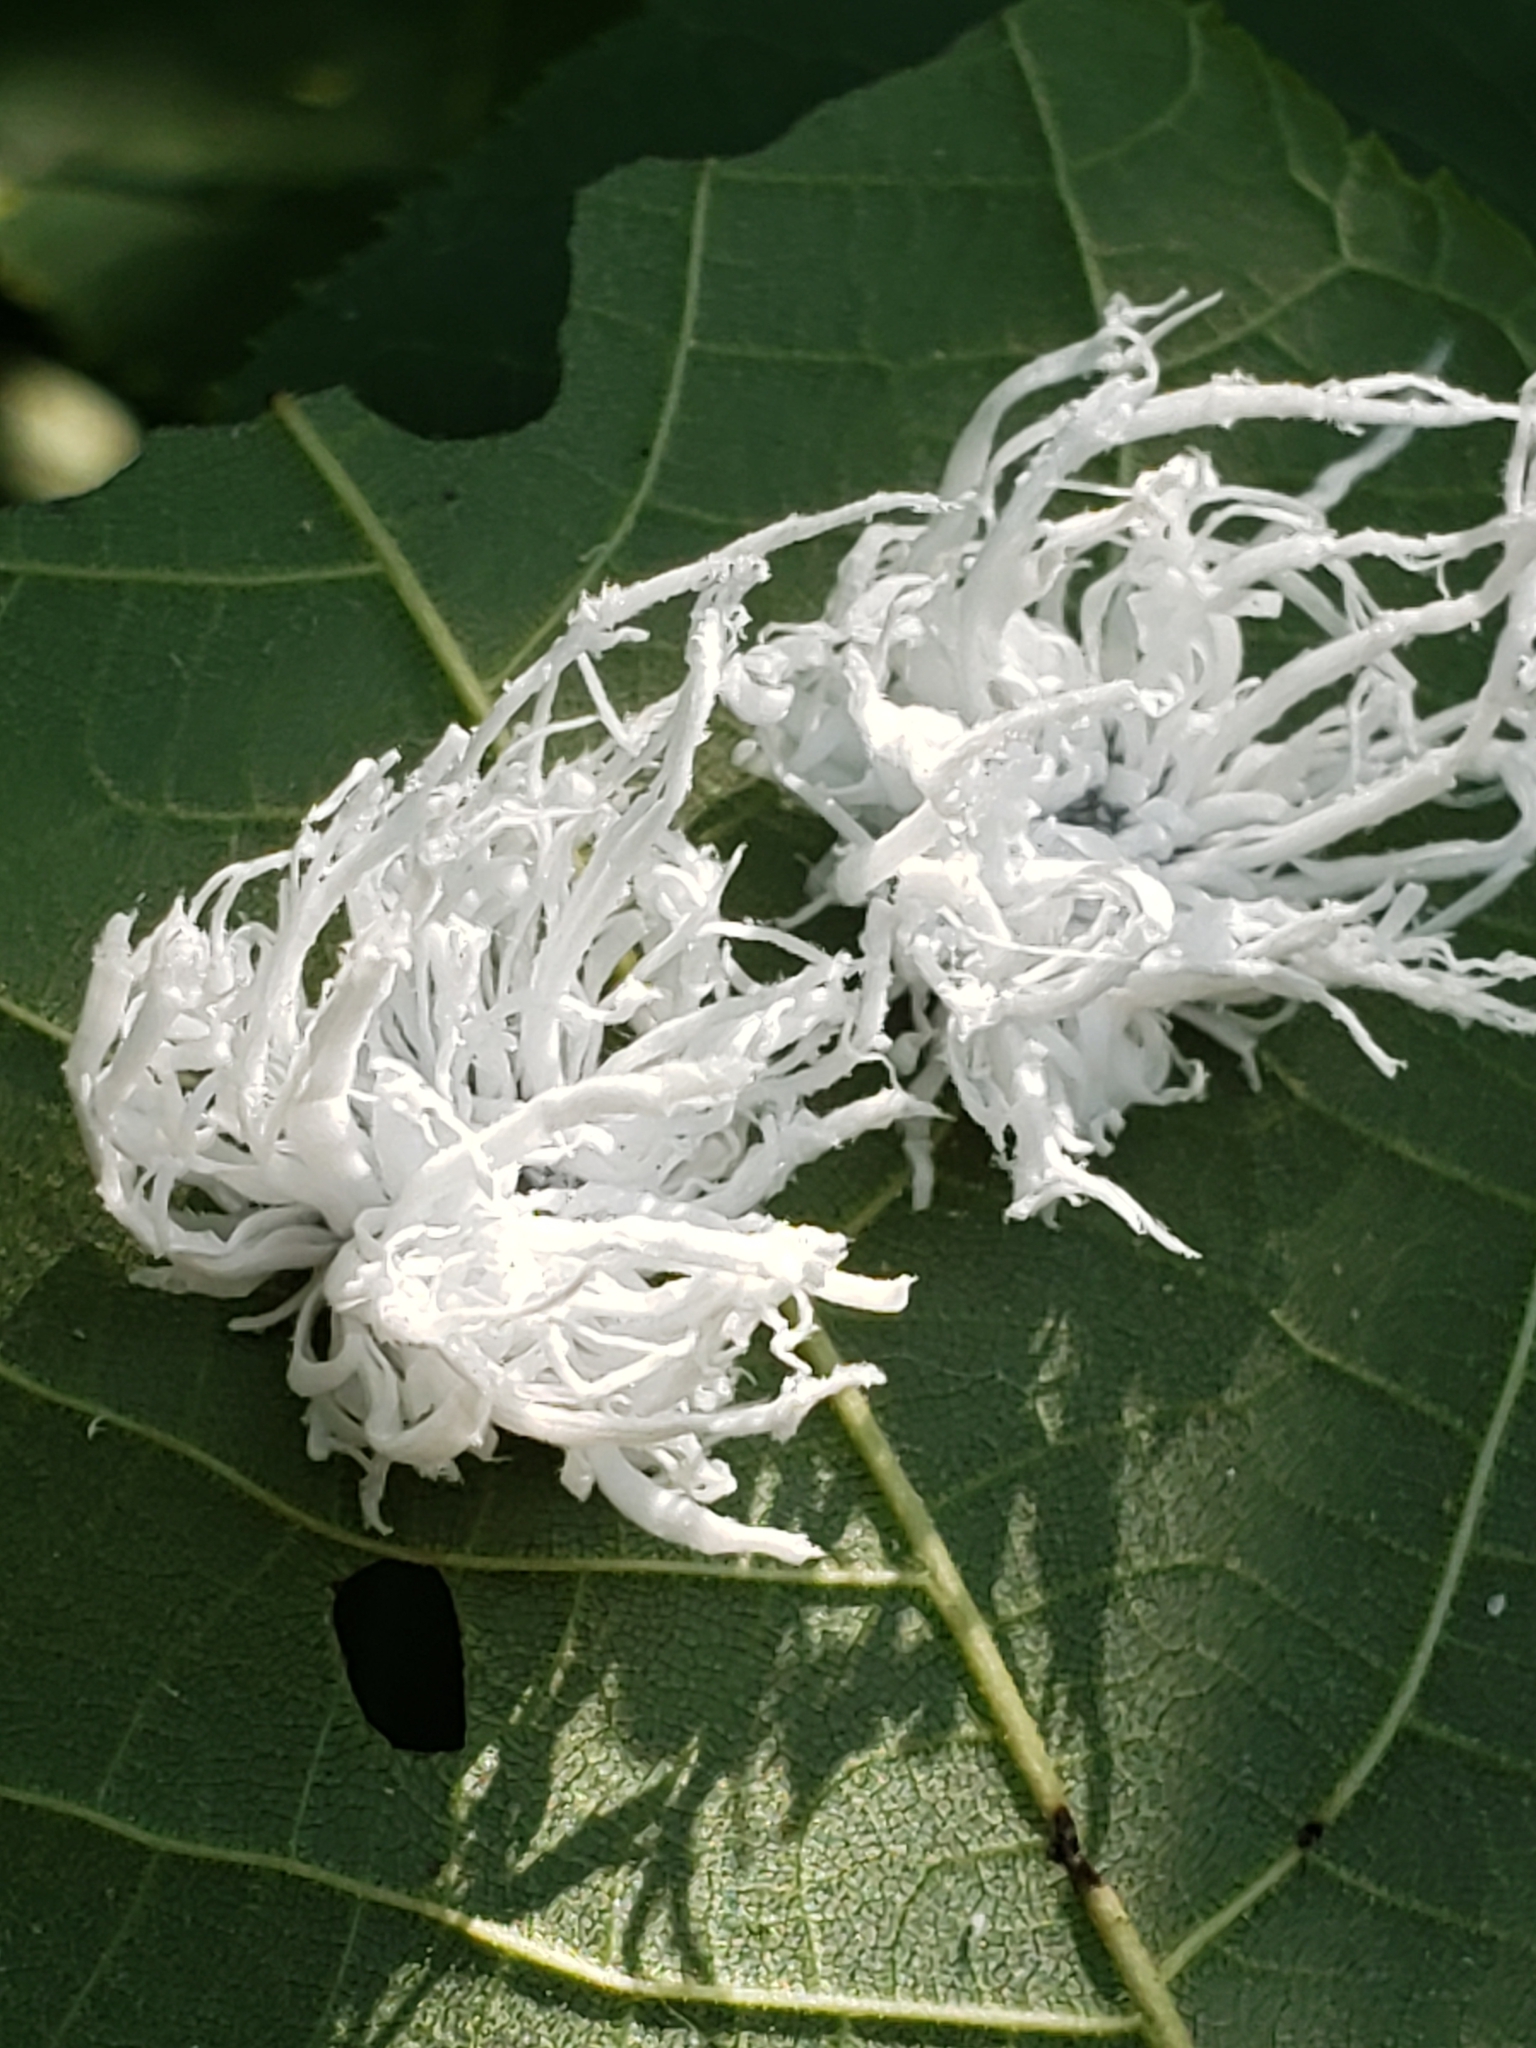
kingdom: Animalia
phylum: Arthropoda
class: Insecta
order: Hymenoptera
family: Tenthredinidae
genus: Eriocampa
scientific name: Eriocampa juglandis
